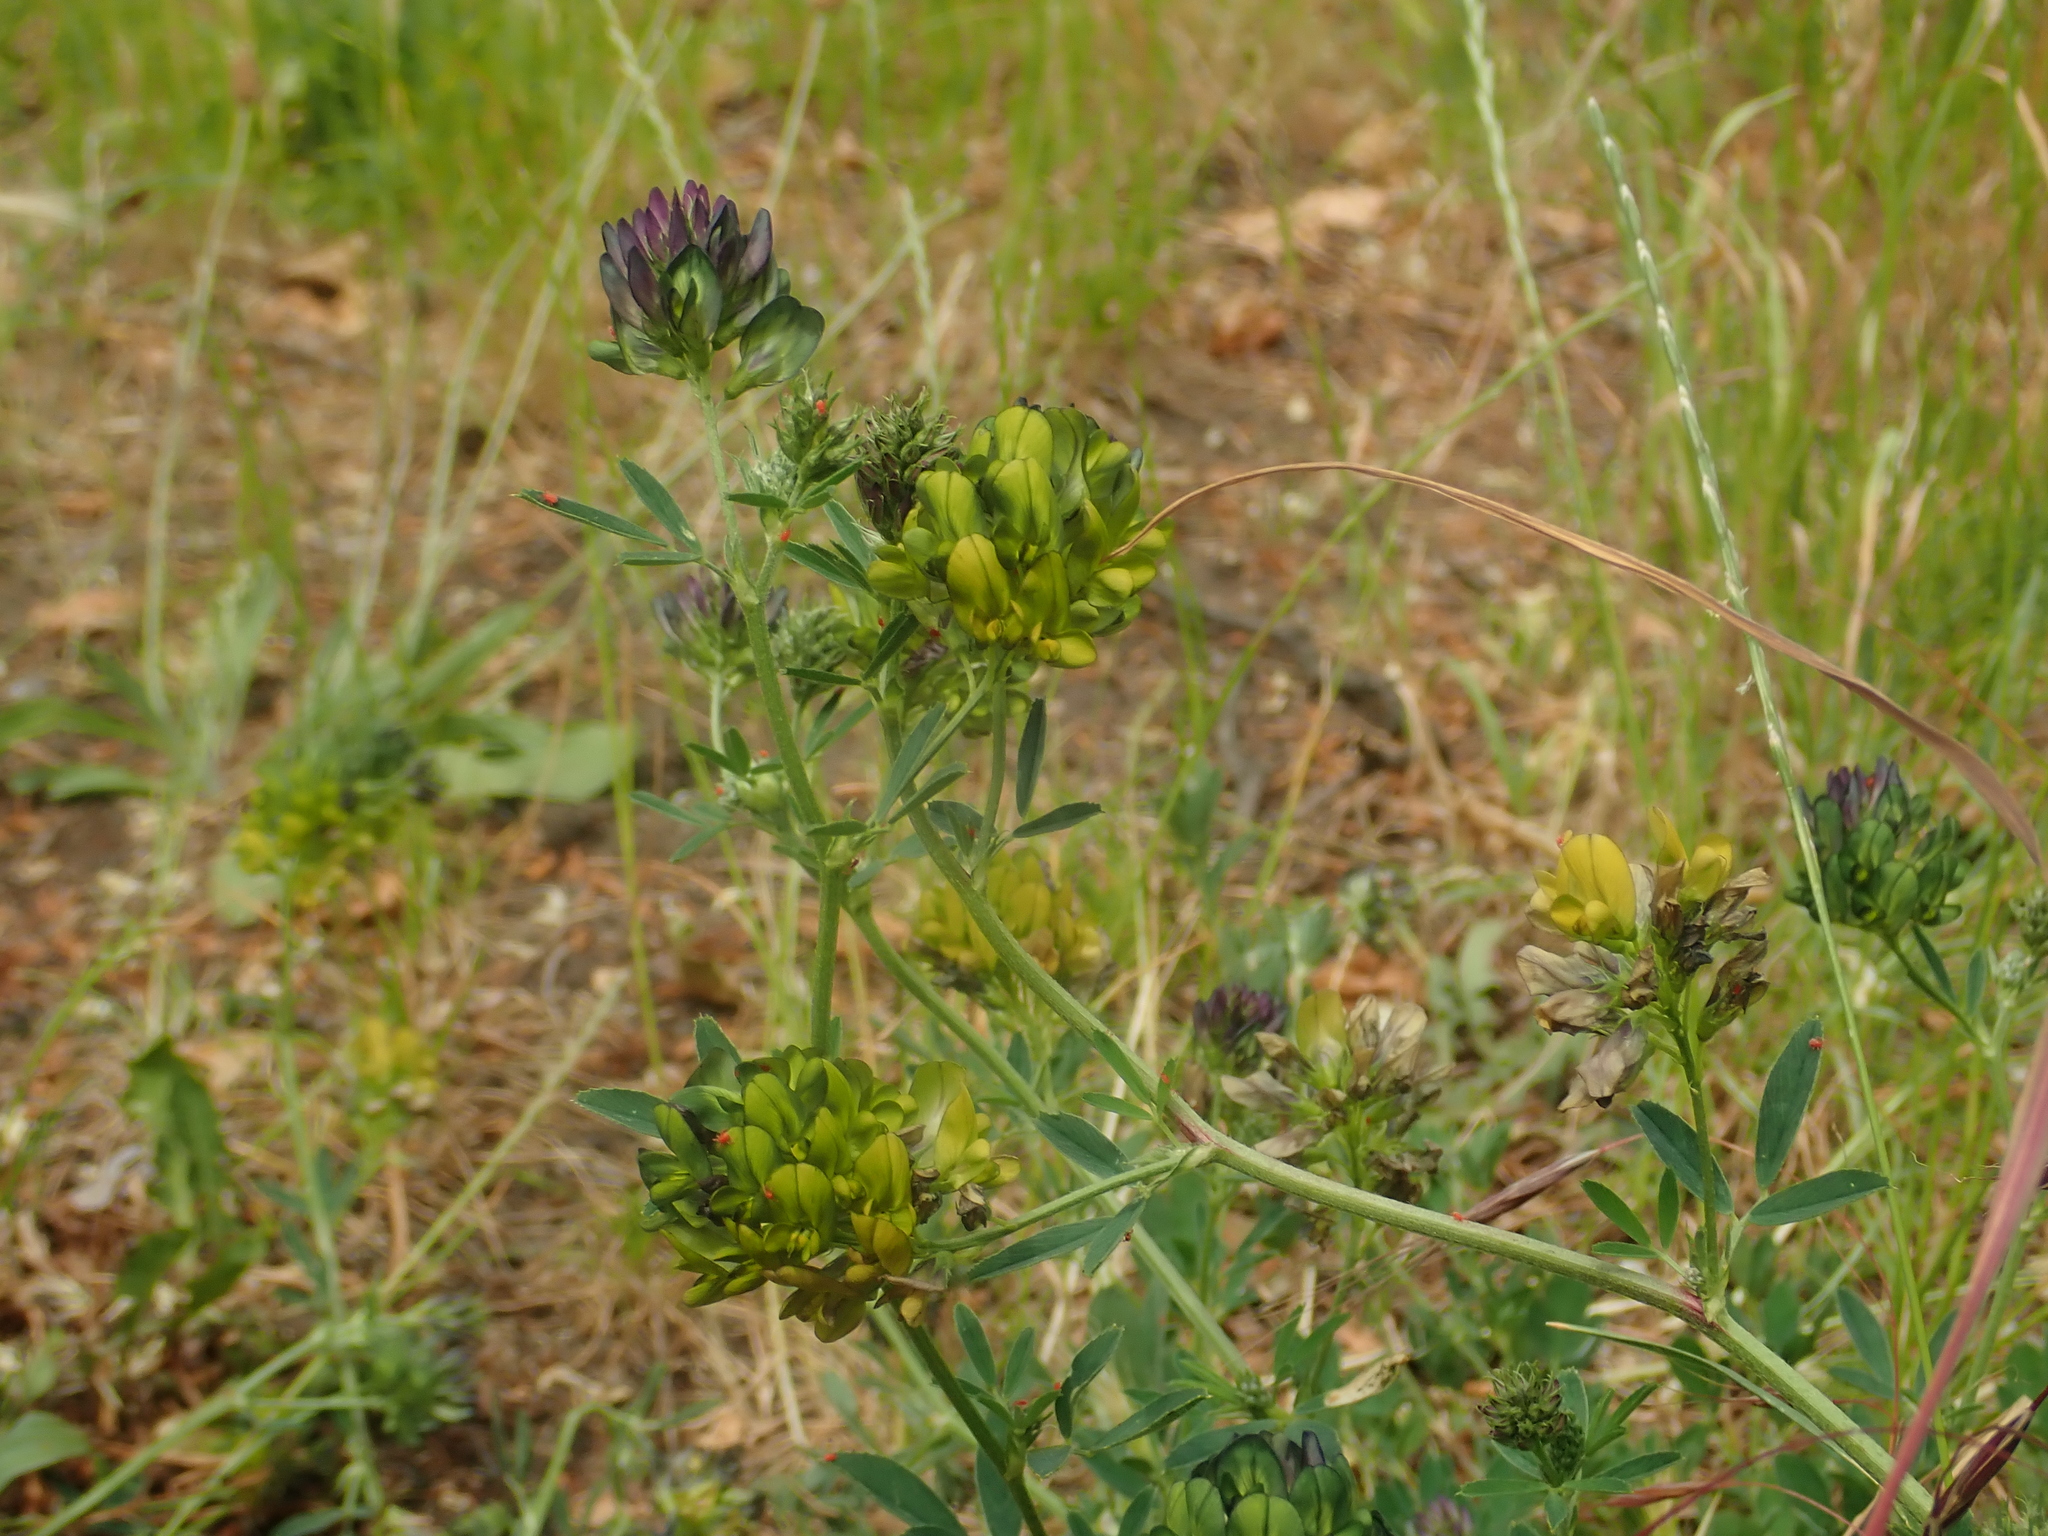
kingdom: Plantae
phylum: Tracheophyta
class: Magnoliopsida
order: Fabales
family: Fabaceae
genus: Medicago
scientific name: Medicago varia
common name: Sand lucerne
